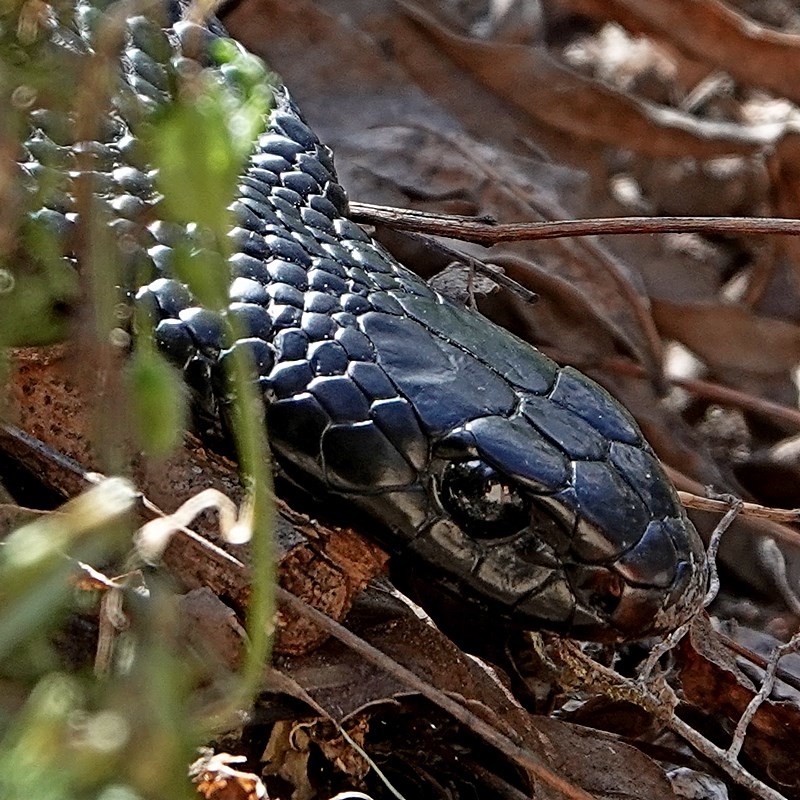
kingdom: Animalia
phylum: Chordata
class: Squamata
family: Elapidae
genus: Pseudechis
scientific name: Pseudechis porphyriacus
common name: Australian black snake
